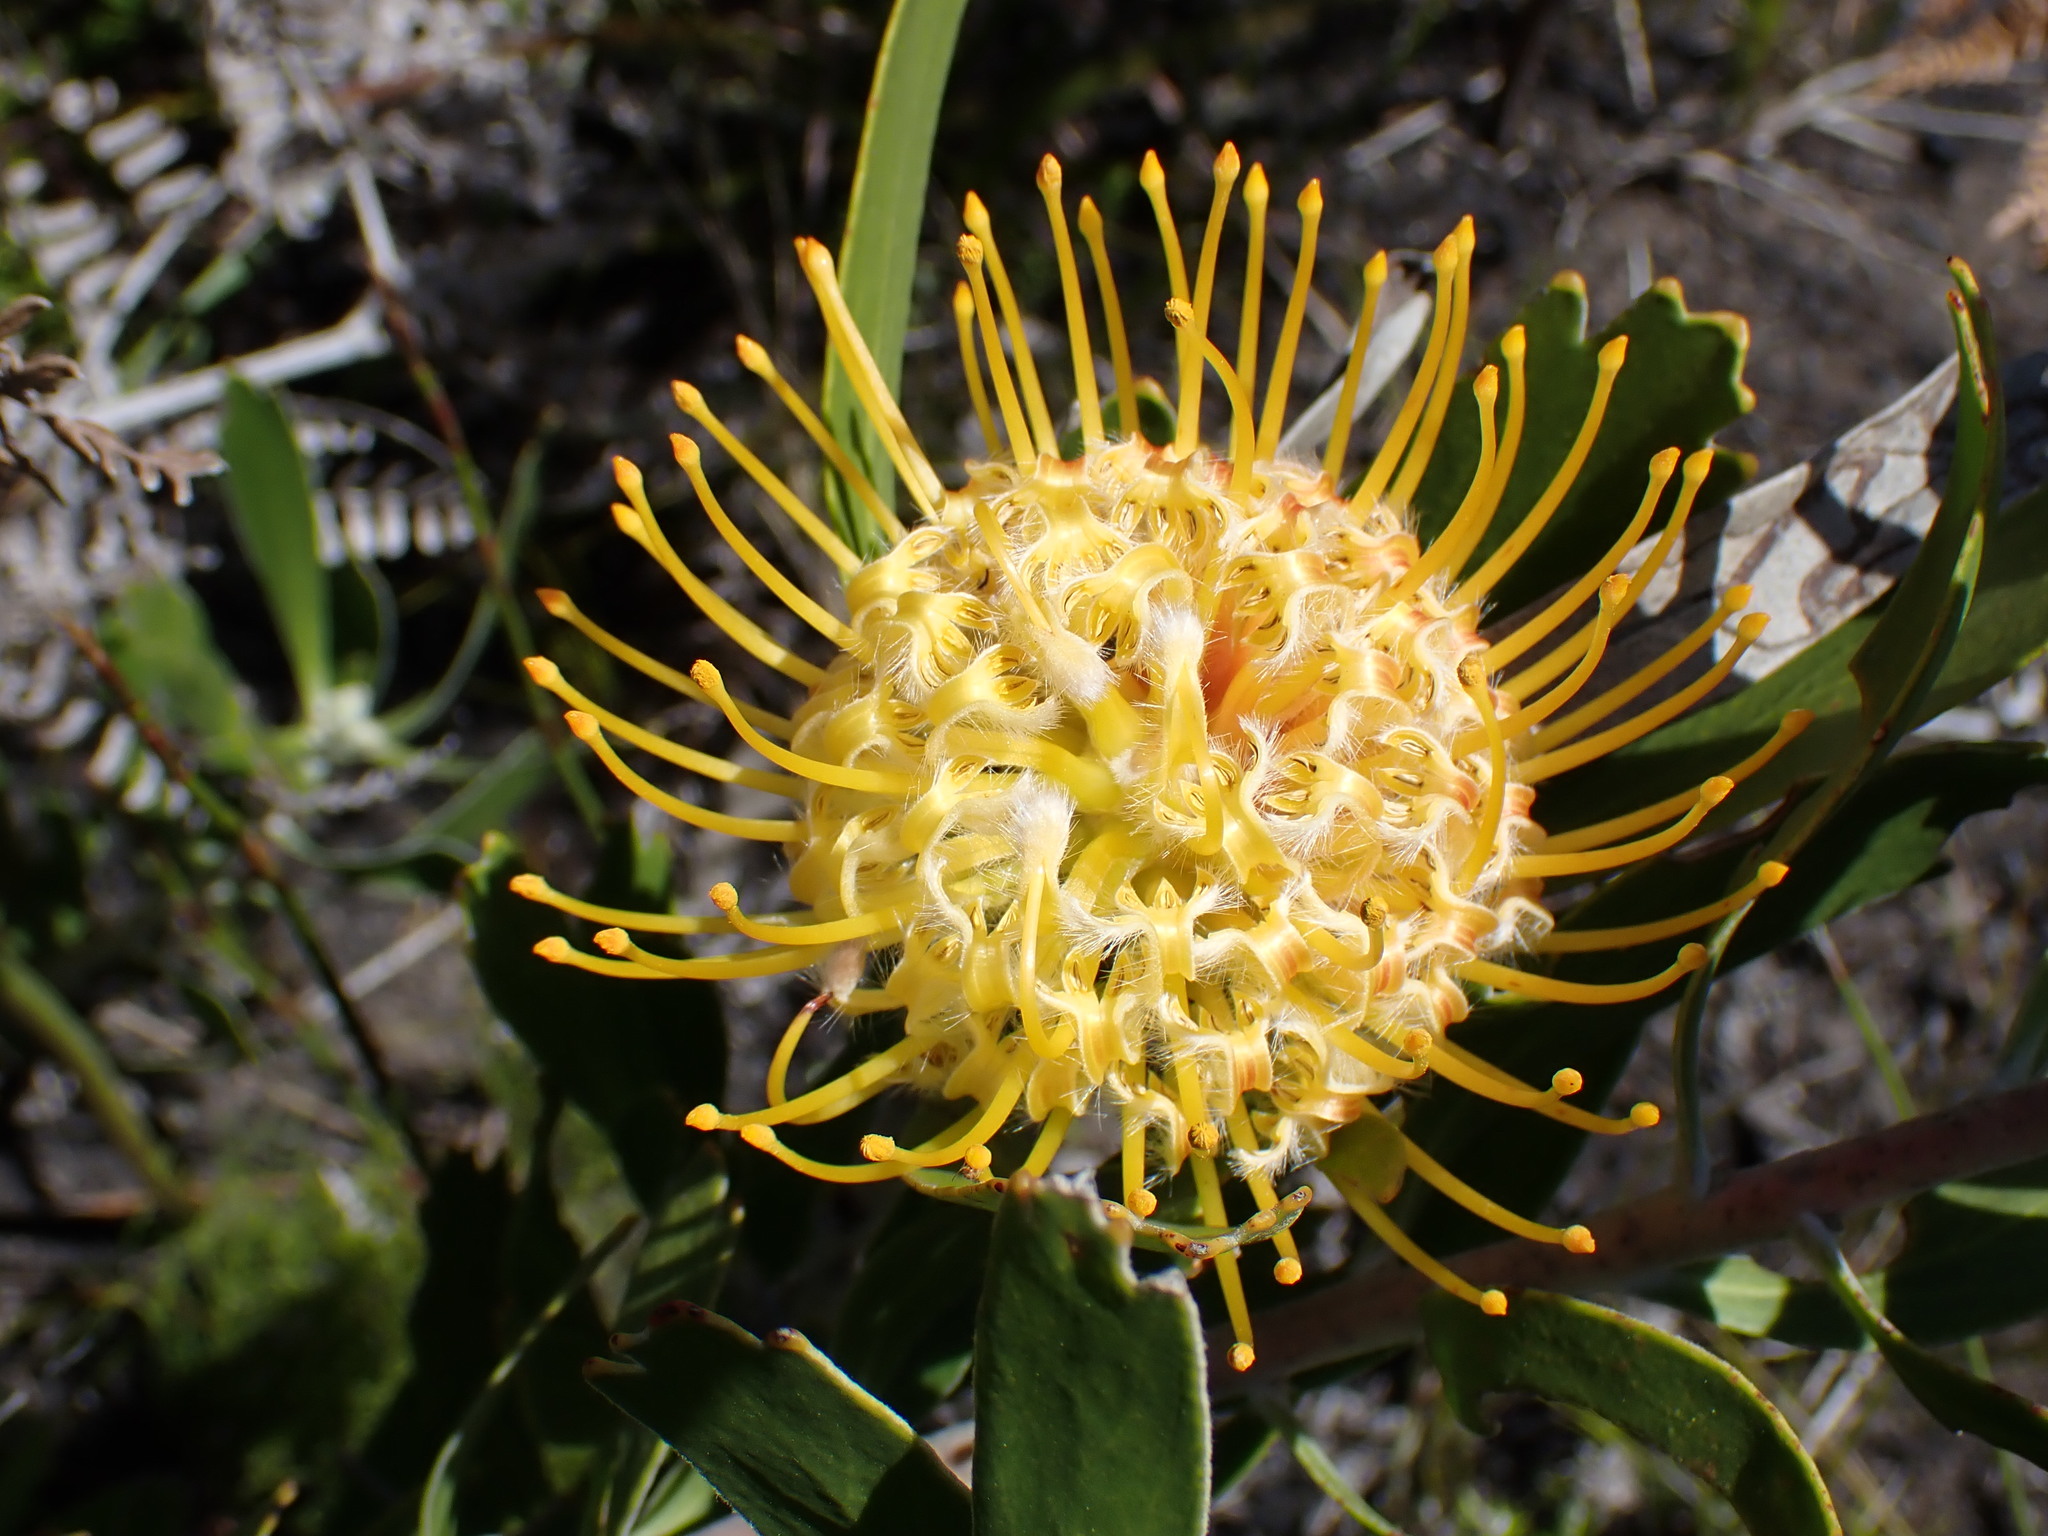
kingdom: Plantae
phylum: Tracheophyta
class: Magnoliopsida
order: Proteales
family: Proteaceae
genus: Leucospermum
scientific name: Leucospermum cuneiforme
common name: Common pincushion
